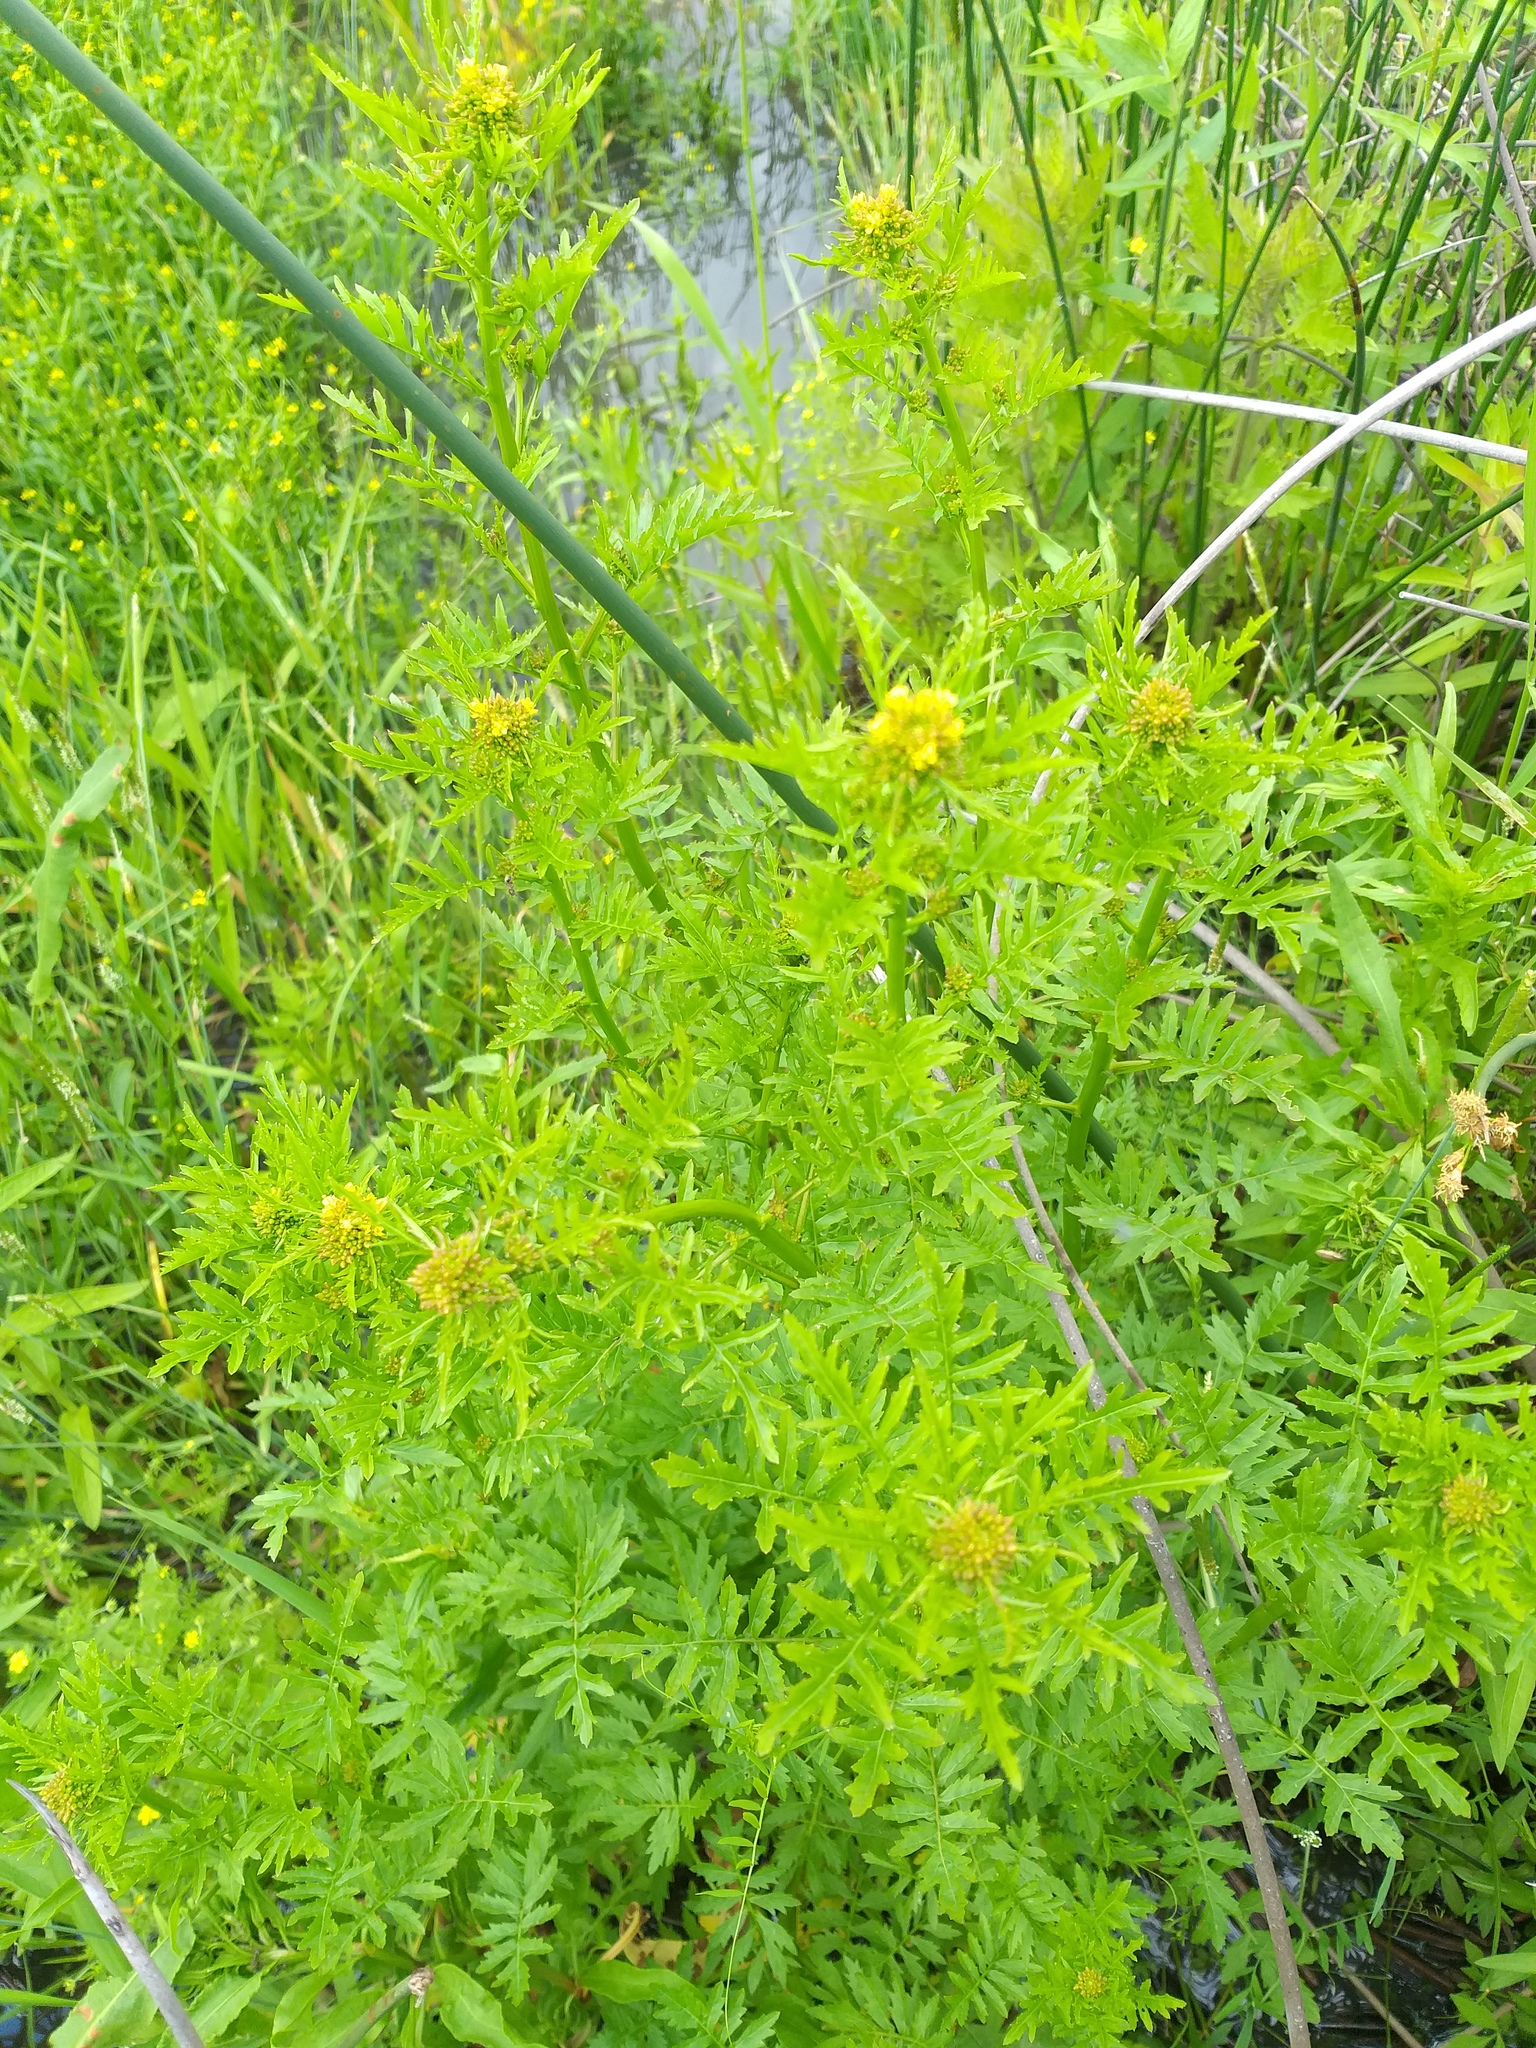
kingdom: Plantae
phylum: Tracheophyta
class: Magnoliopsida
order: Brassicales
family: Brassicaceae
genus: Rorippa
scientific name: Rorippa palustris
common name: Marsh yellow-cress
